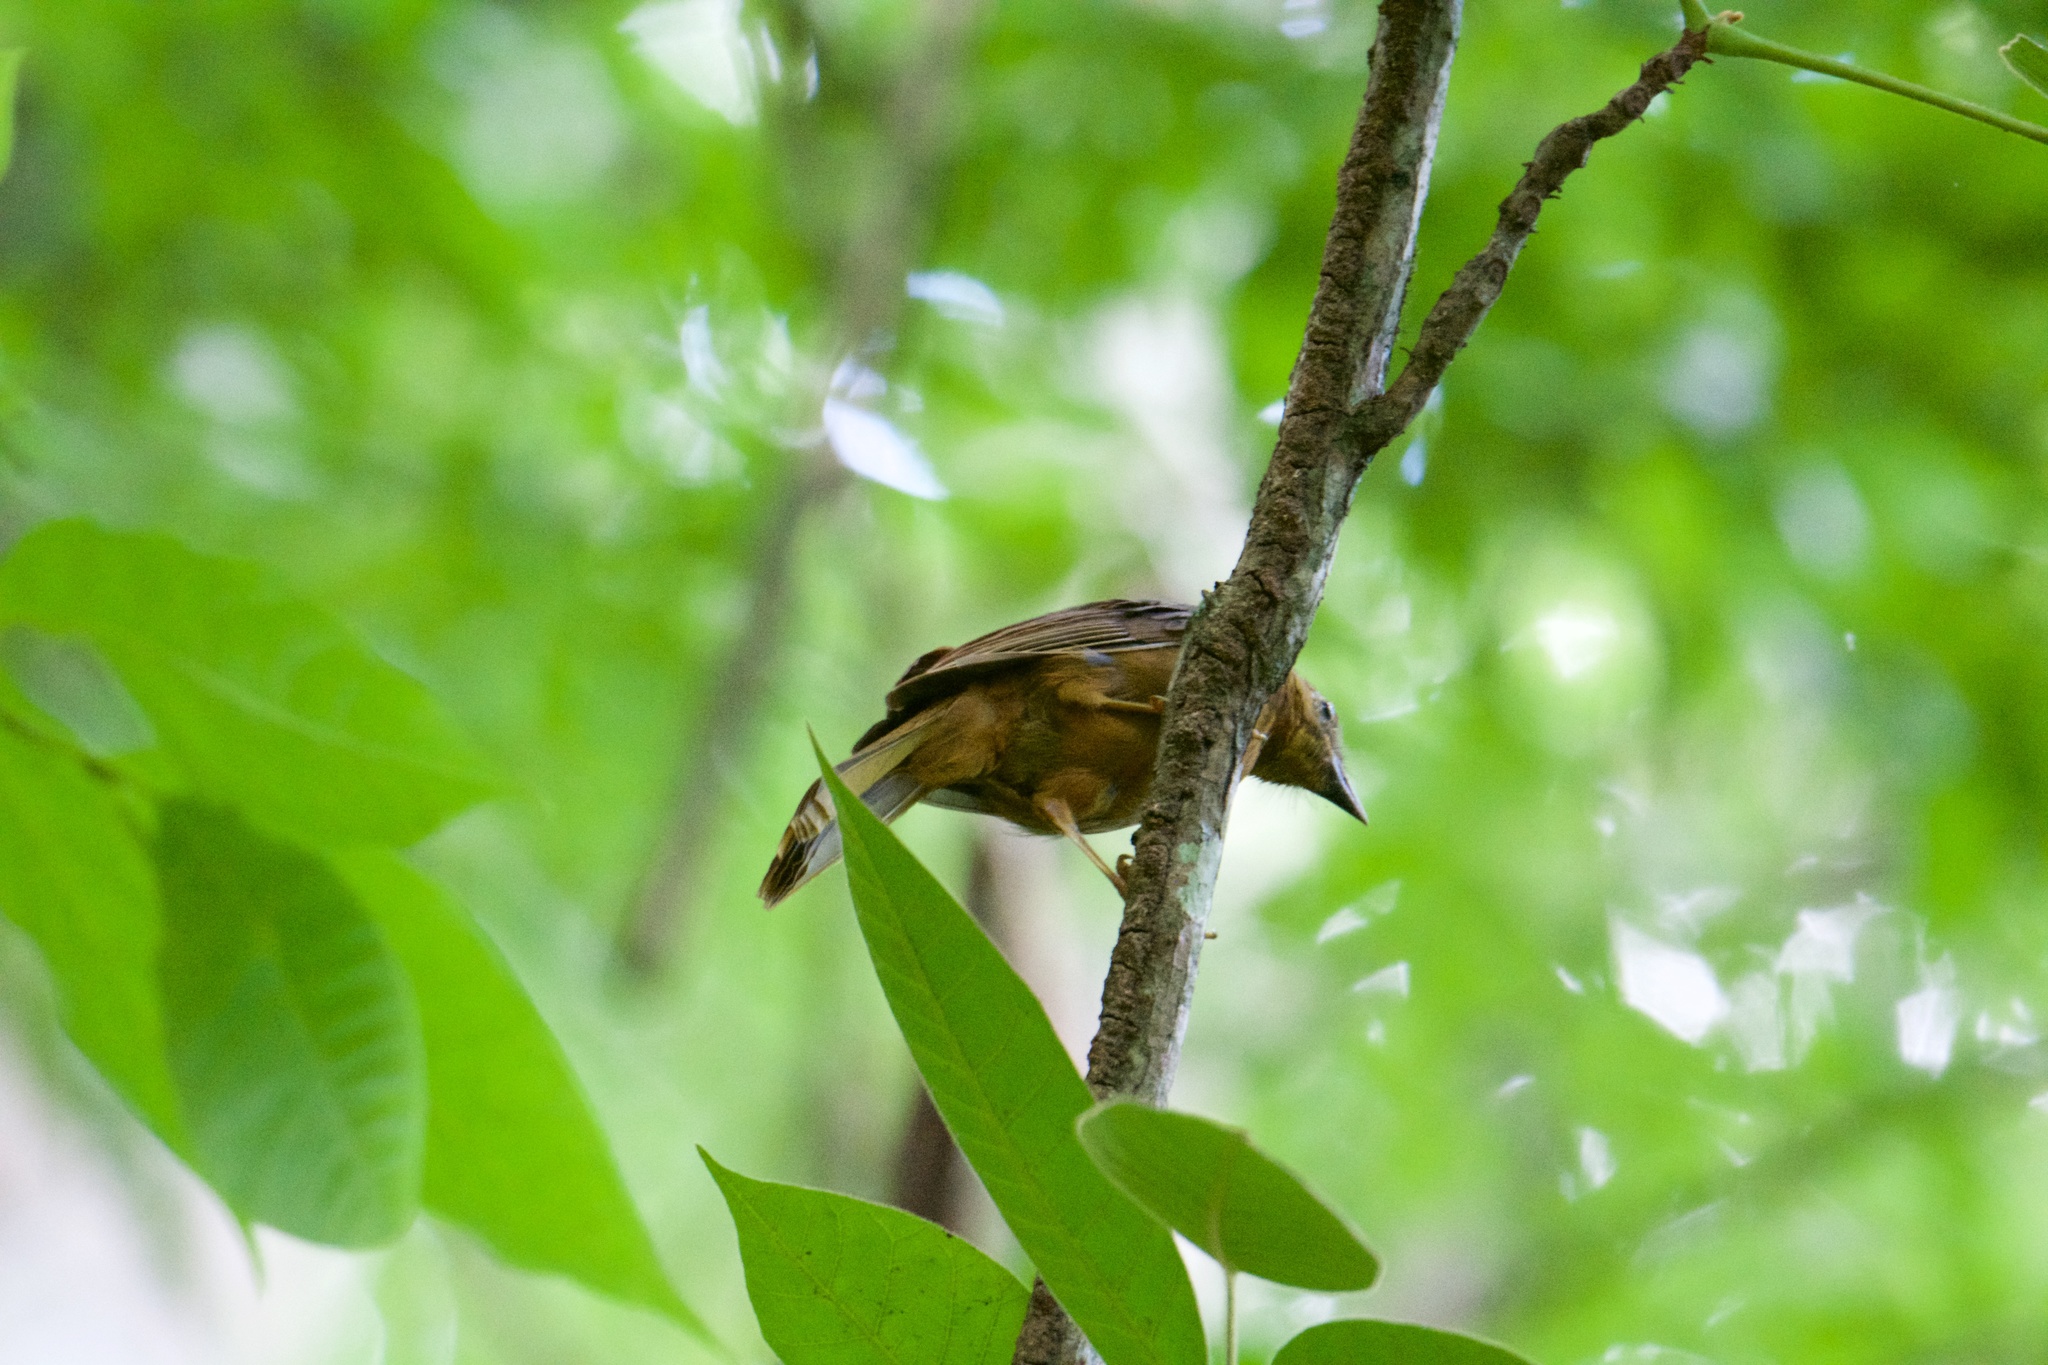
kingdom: Animalia
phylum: Chordata
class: Aves
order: Passeriformes
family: Cardinalidae
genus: Habia
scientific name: Habia
